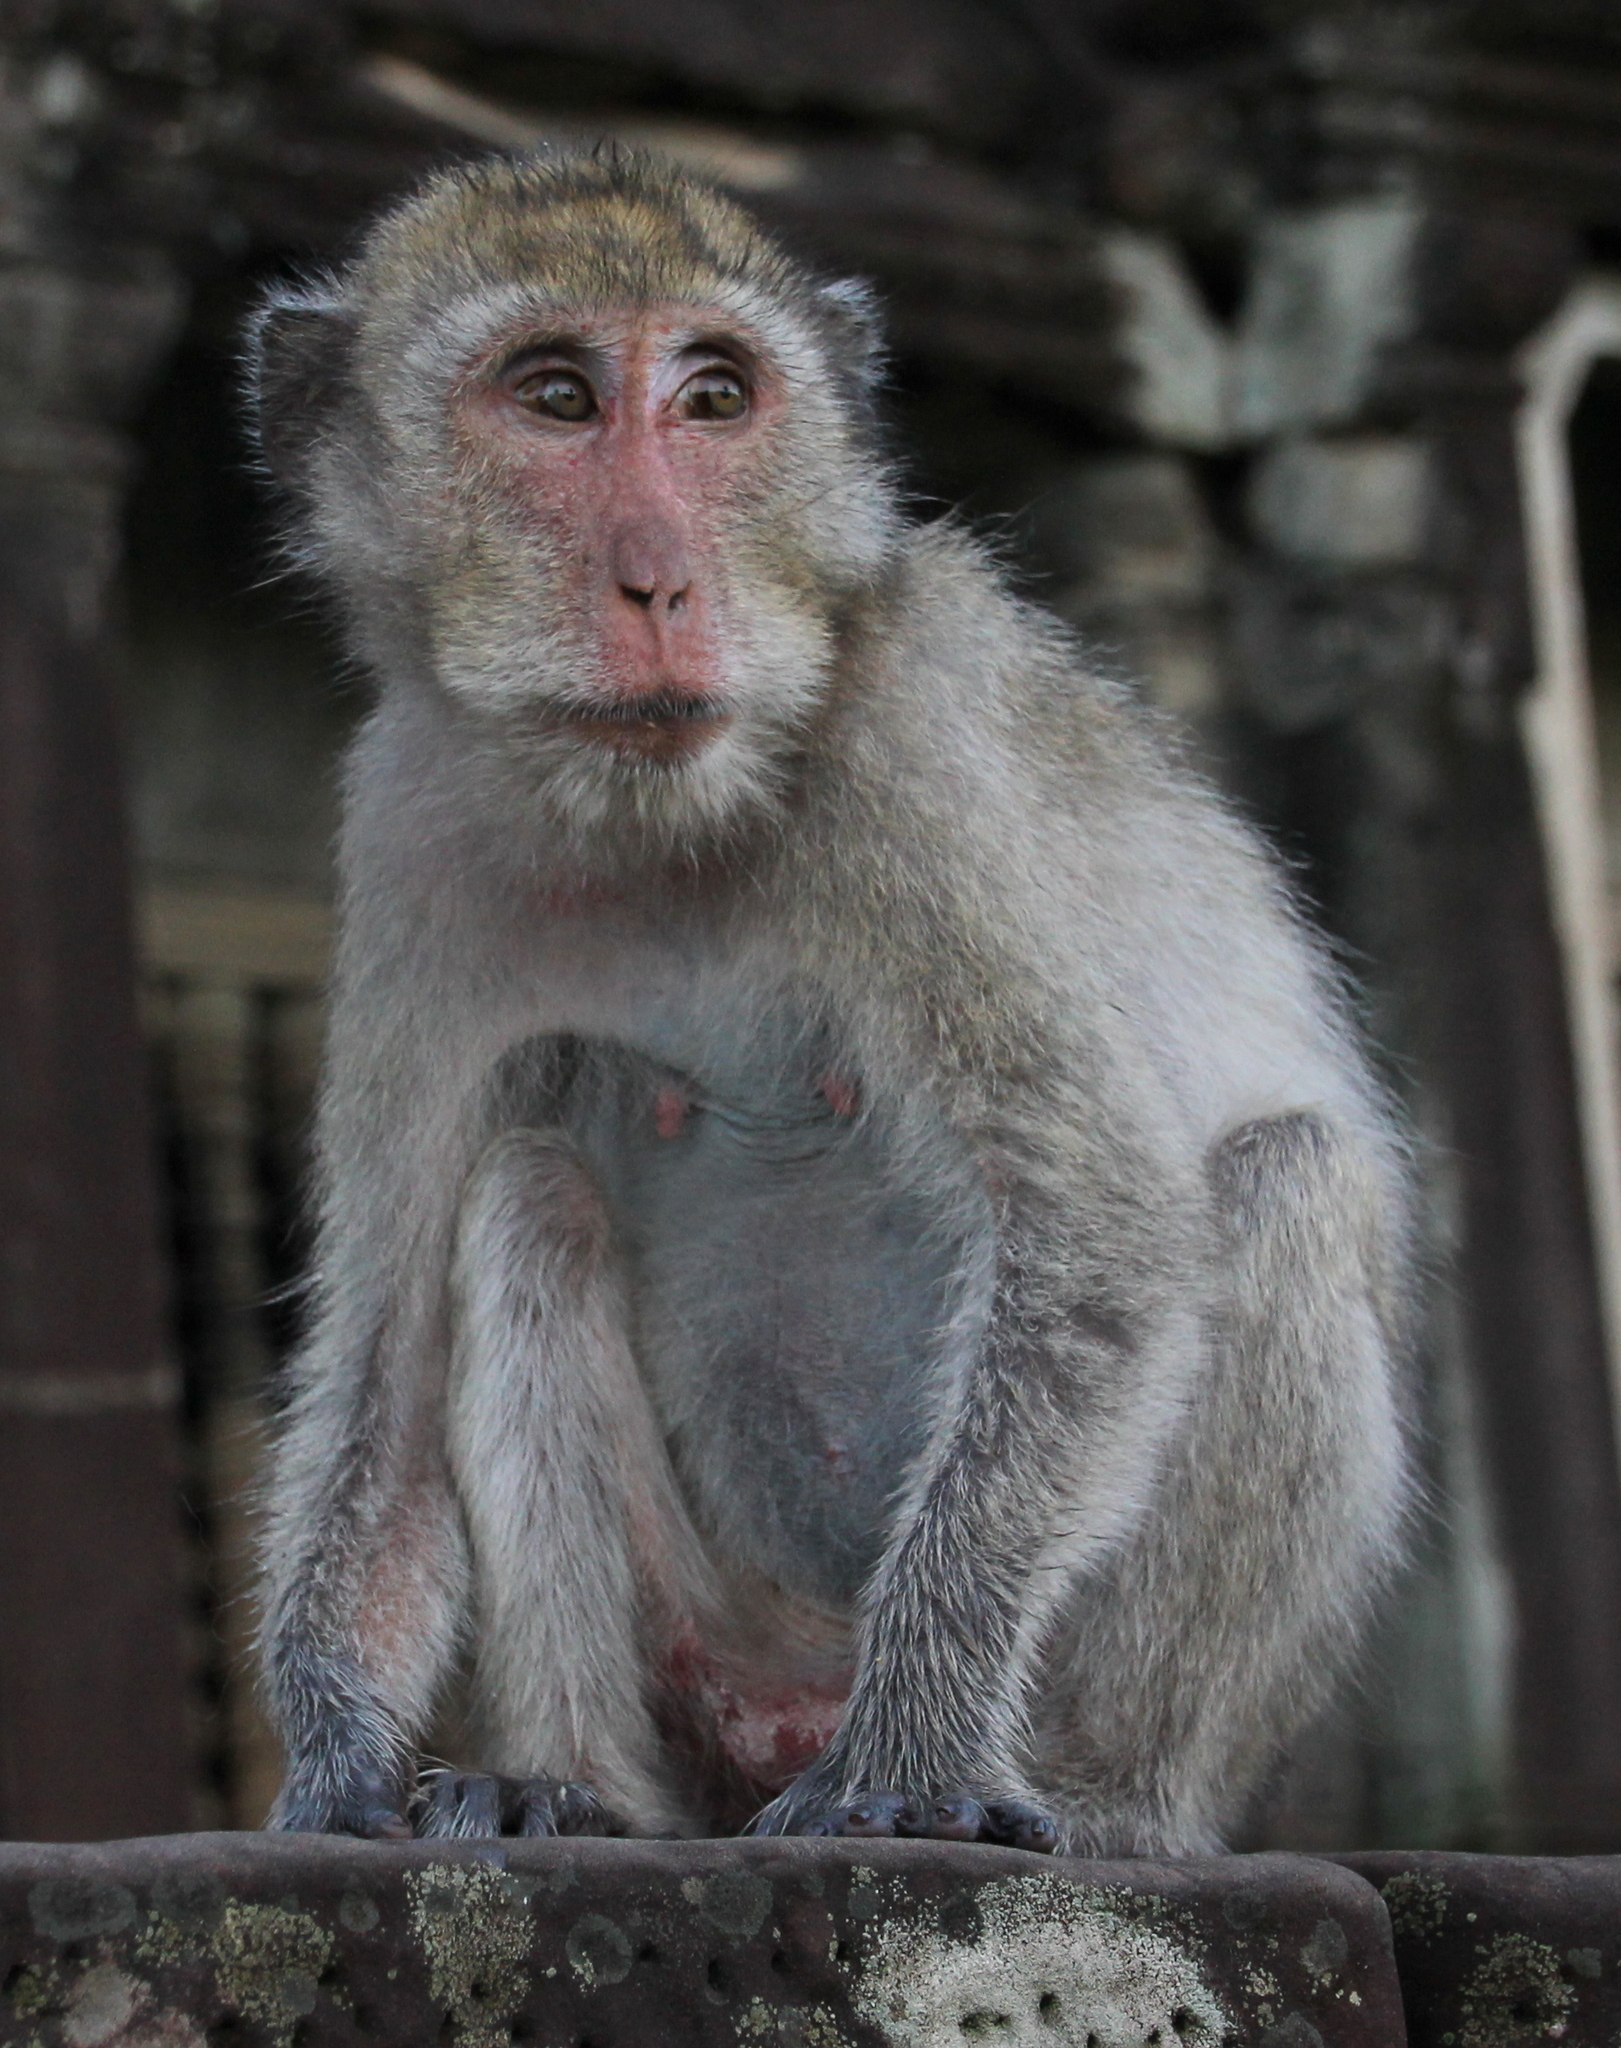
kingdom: Animalia
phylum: Chordata
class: Mammalia
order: Primates
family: Cercopithecidae
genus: Macaca
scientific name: Macaca fascicularis
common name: Crab-eating macaque
